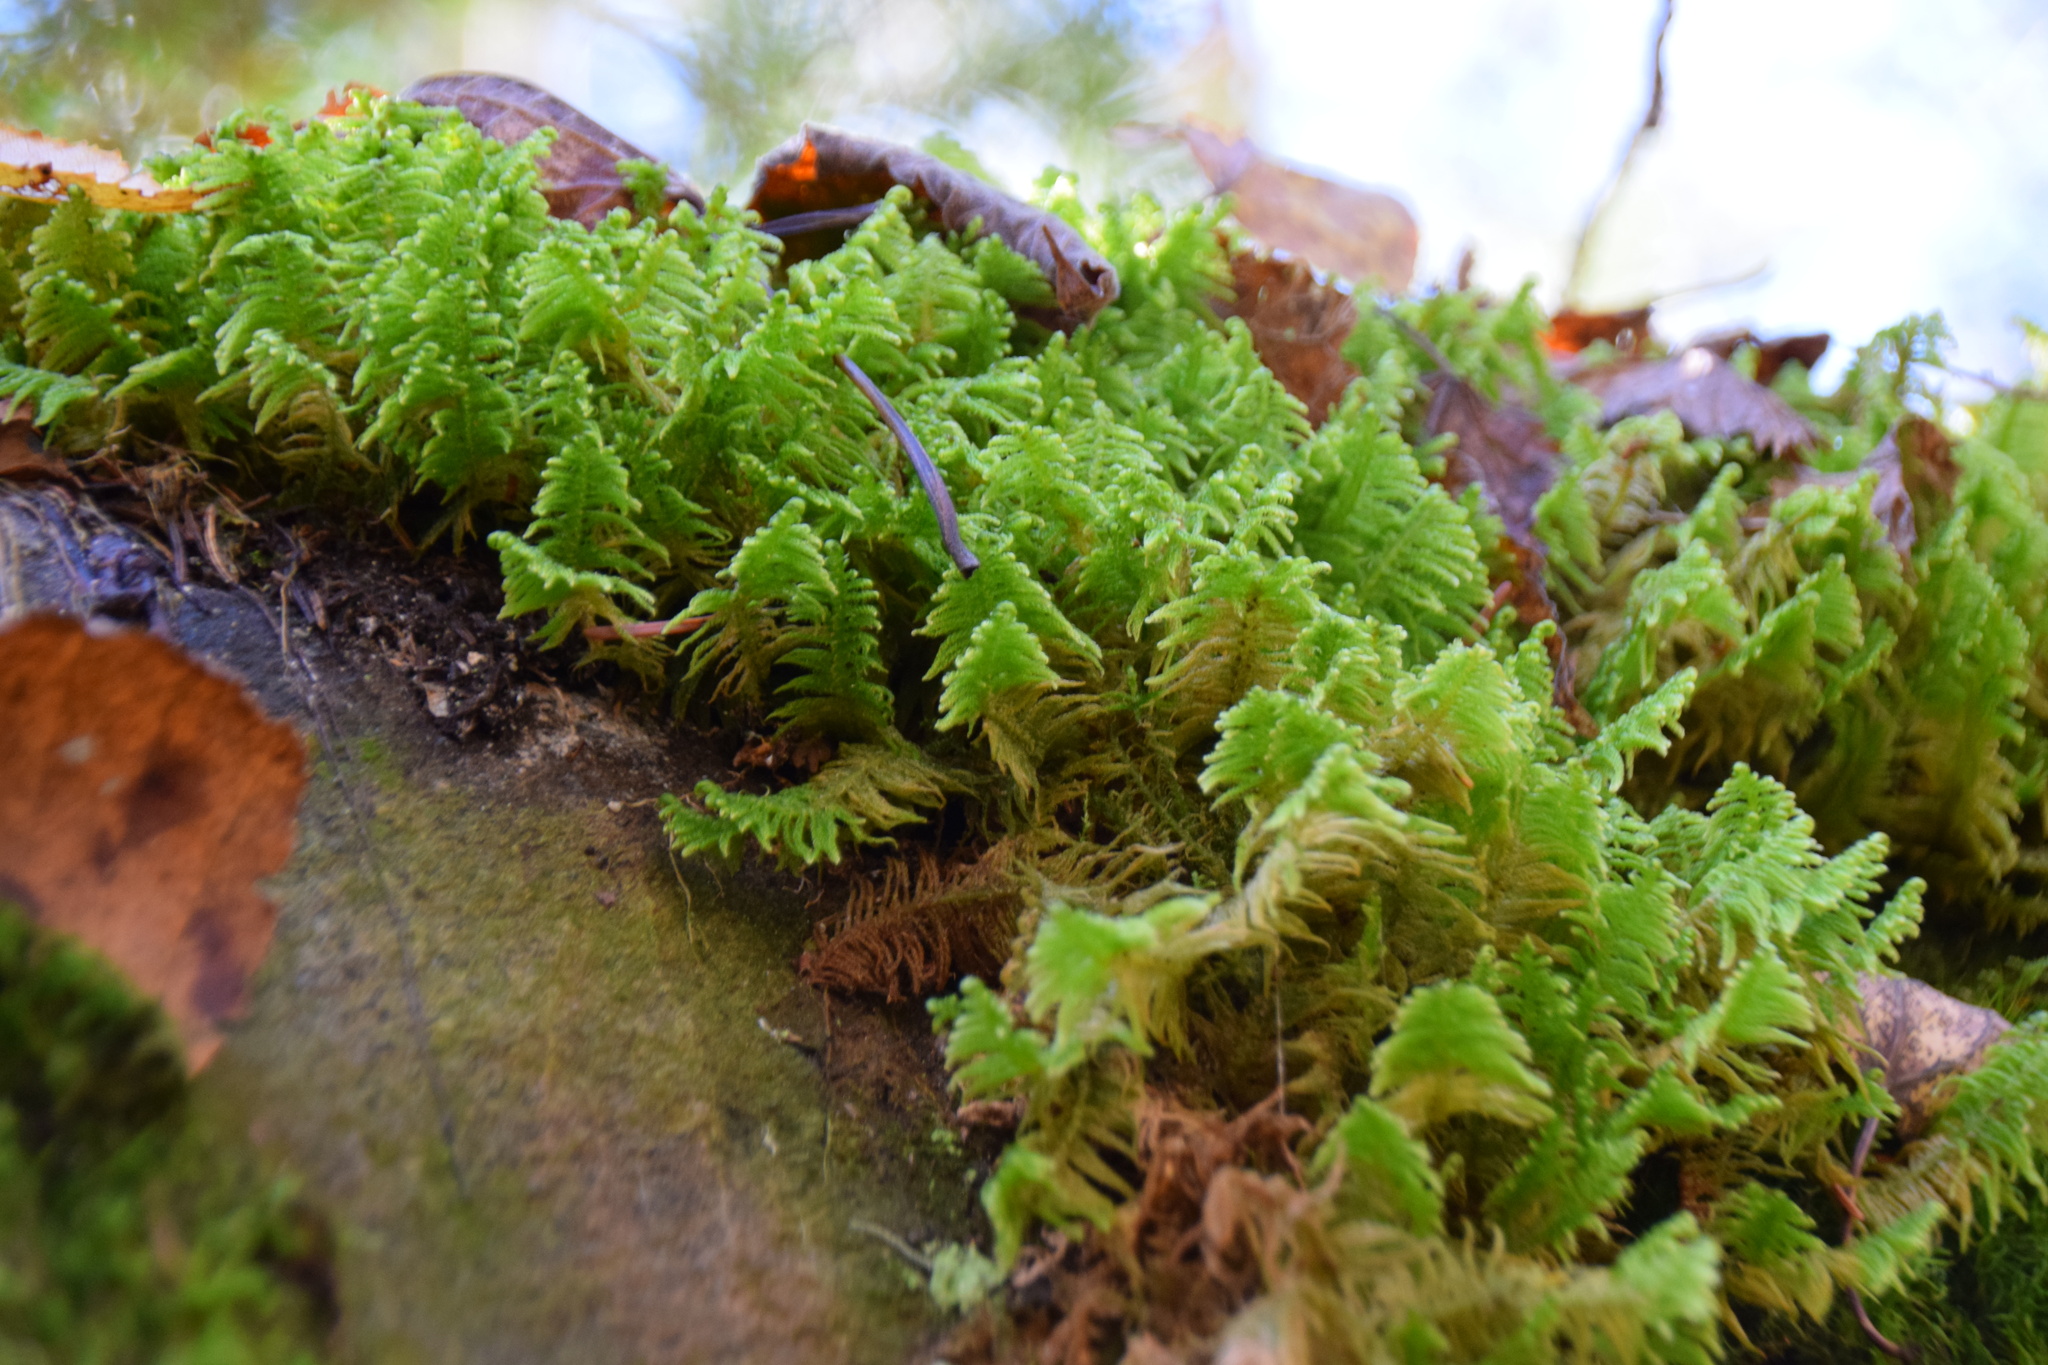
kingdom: Plantae
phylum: Bryophyta
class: Bryopsida
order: Hypnales
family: Pylaisiaceae
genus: Ptilium
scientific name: Ptilium crista-castrensis
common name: Knight's plume moss
